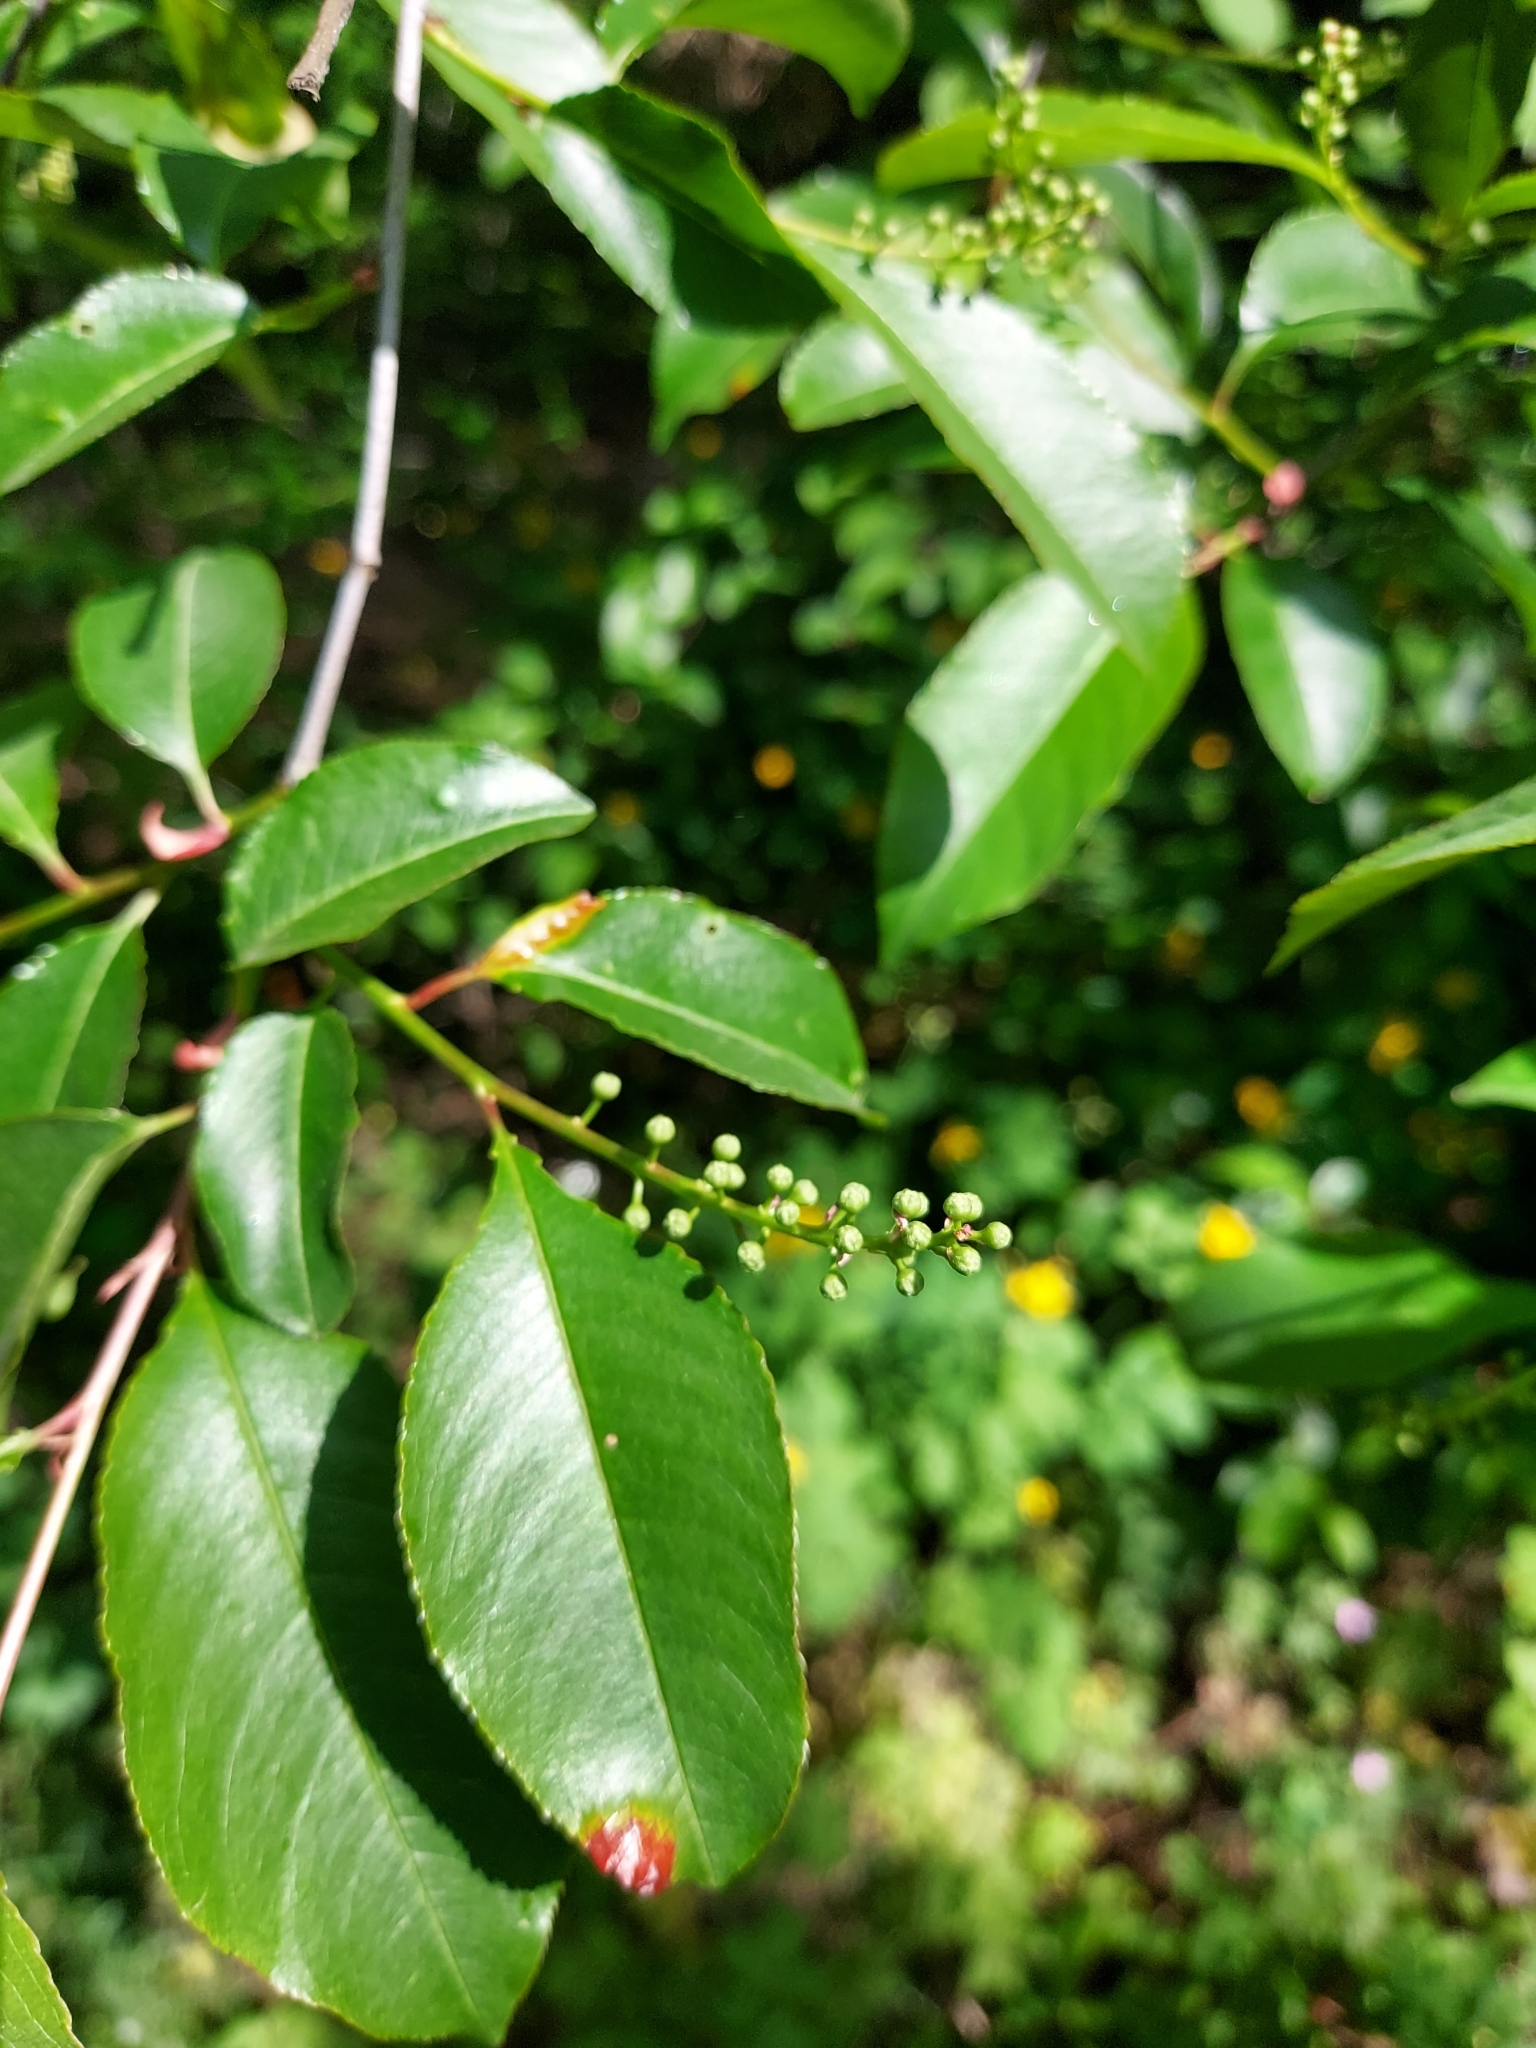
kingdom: Plantae
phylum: Tracheophyta
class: Magnoliopsida
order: Rosales
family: Rosaceae
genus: Prunus
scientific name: Prunus serotina
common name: Black cherry
